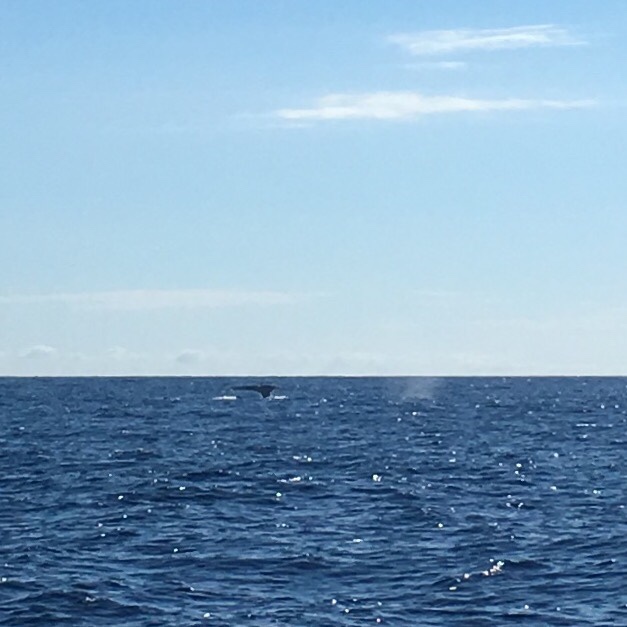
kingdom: Animalia
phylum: Chordata
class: Mammalia
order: Cetacea
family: Balaenopteridae
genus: Megaptera
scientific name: Megaptera novaeangliae
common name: Humpback whale
